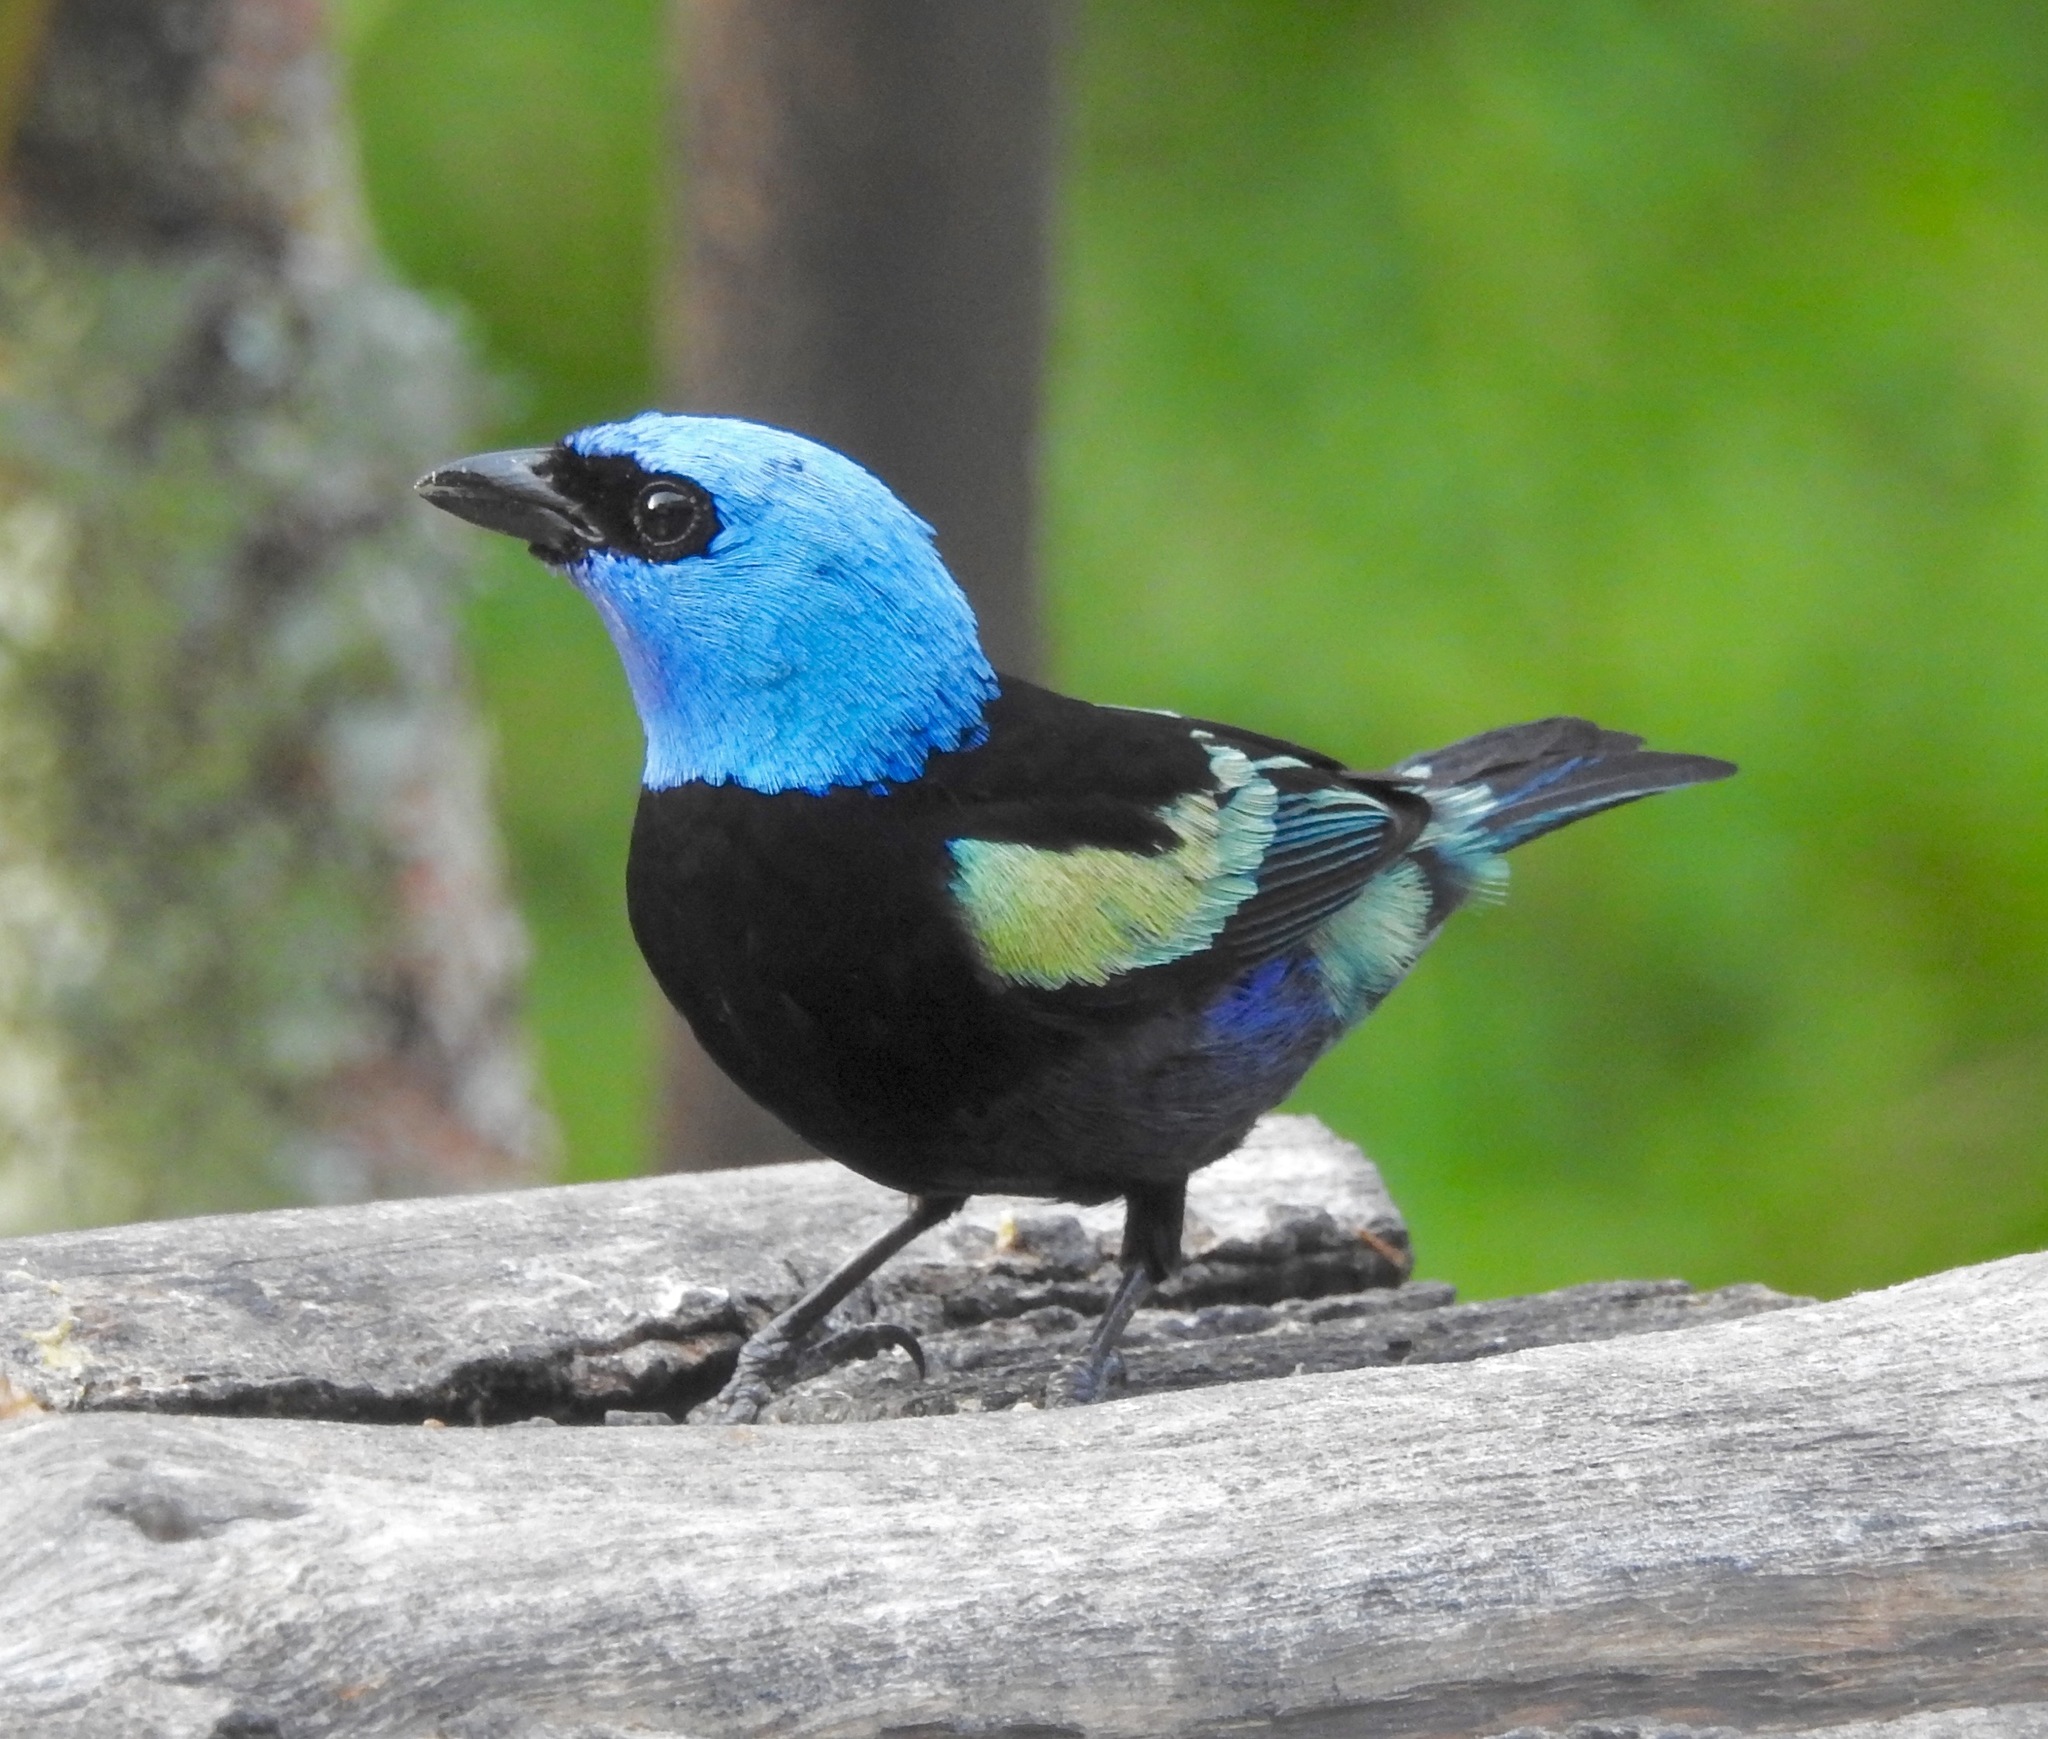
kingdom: Animalia
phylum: Chordata
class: Aves
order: Passeriformes
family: Thraupidae
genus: Stilpnia
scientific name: Stilpnia cyanicollis
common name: Blue-necked tanager
